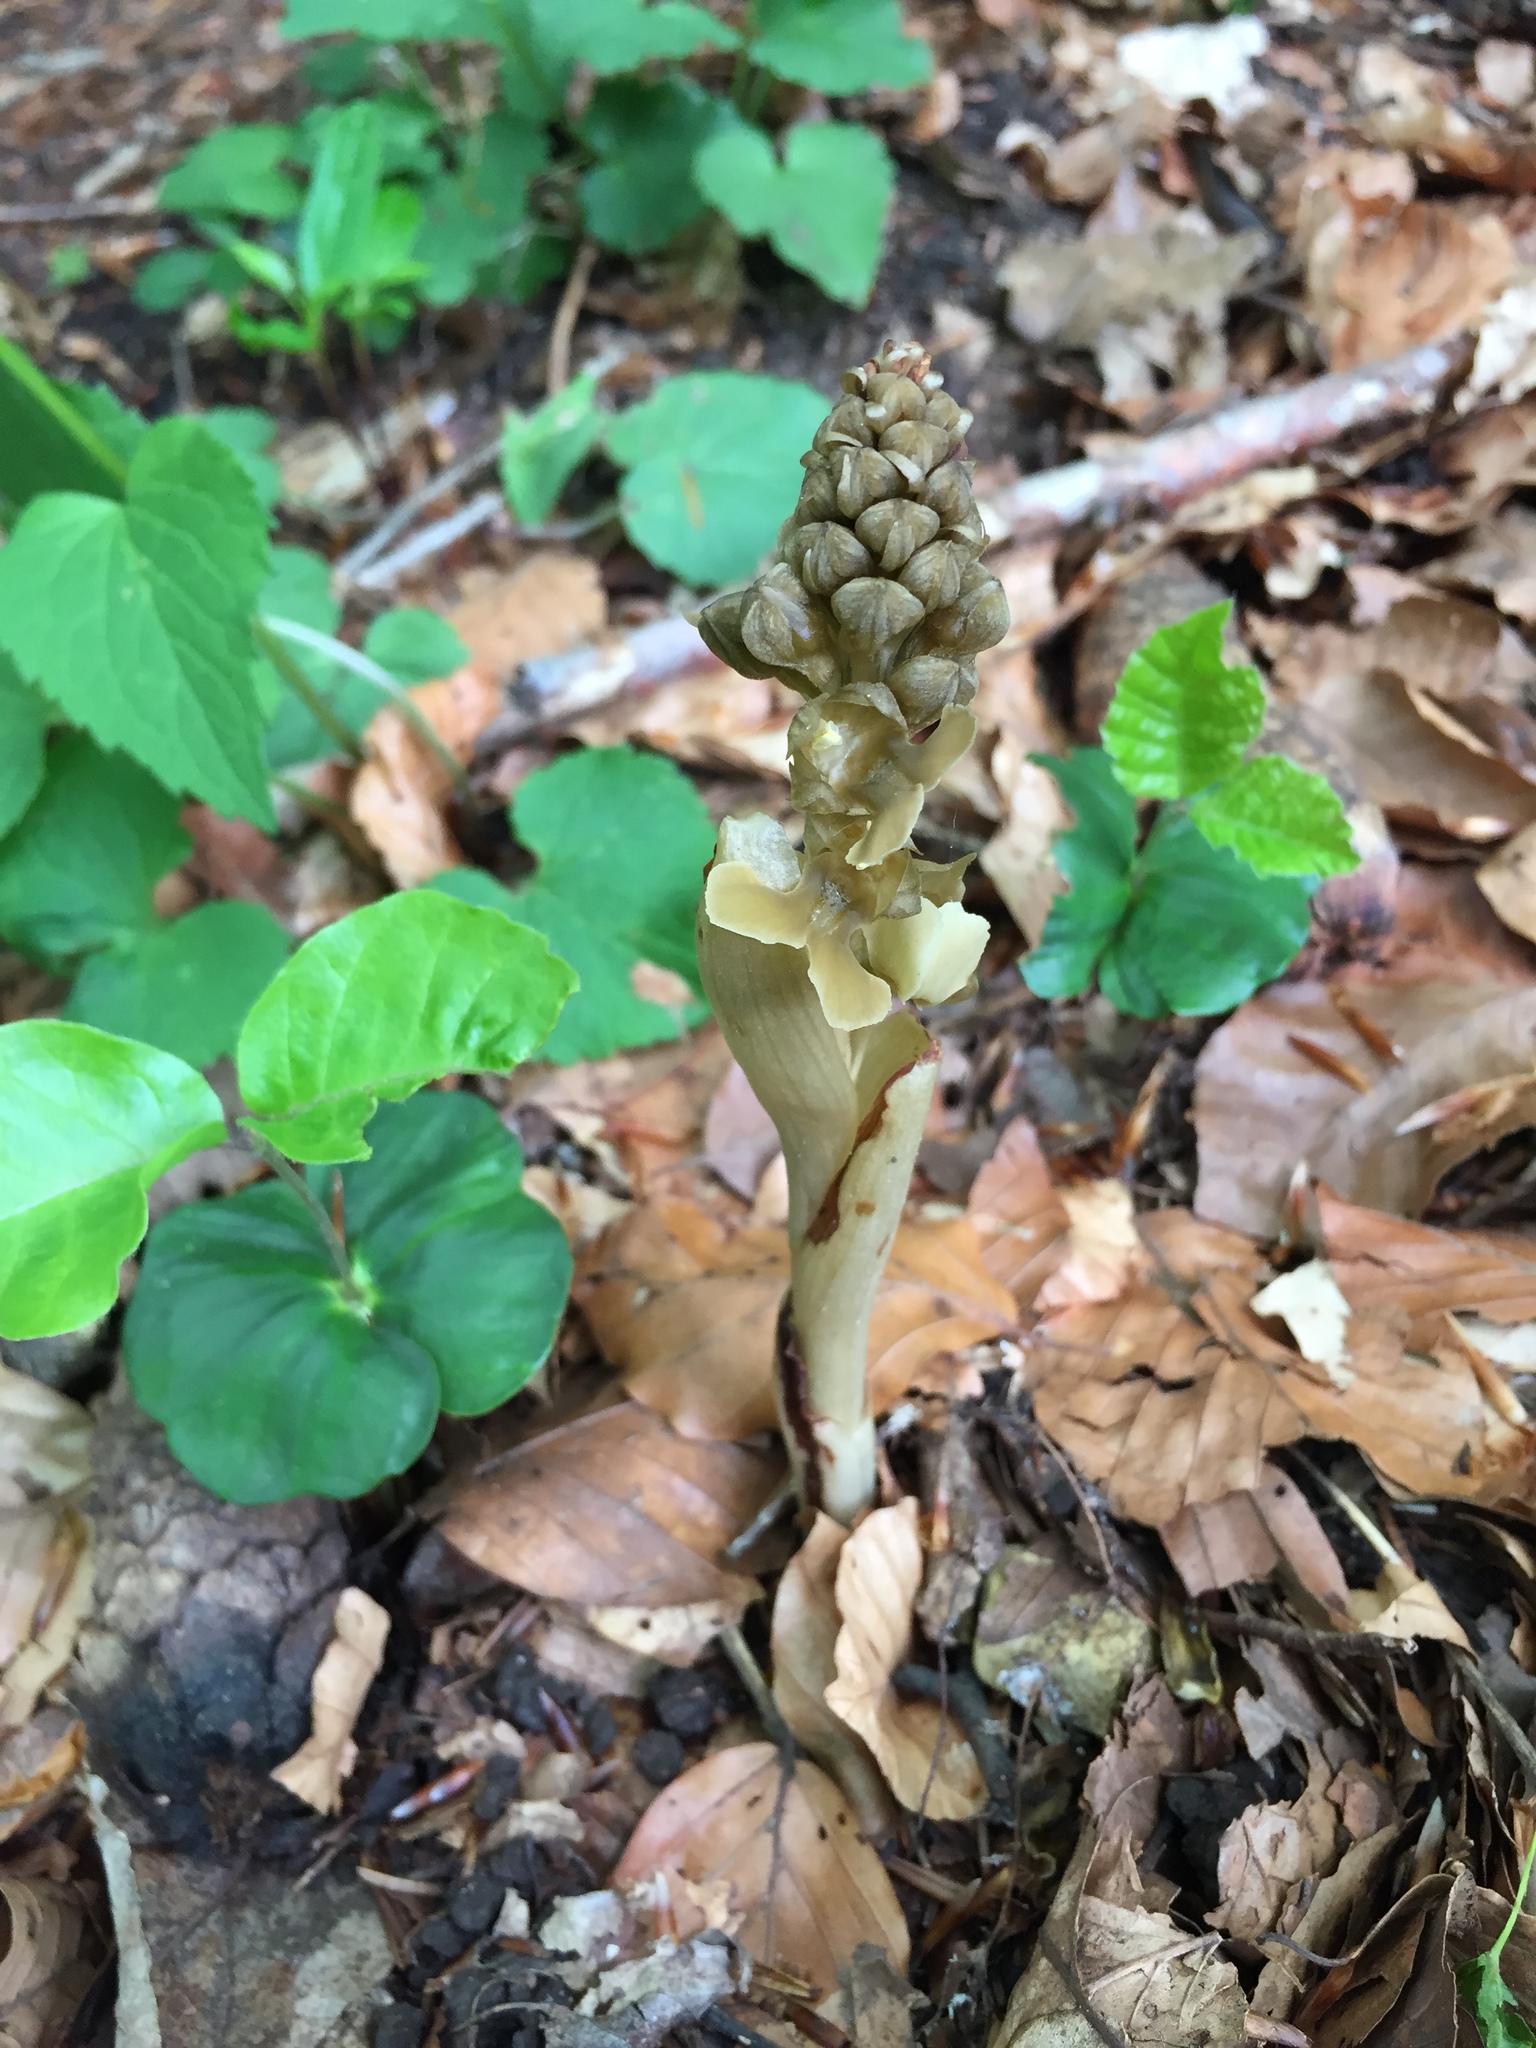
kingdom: Plantae
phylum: Tracheophyta
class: Liliopsida
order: Asparagales
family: Orchidaceae
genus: Neottia
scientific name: Neottia nidus-avis
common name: Bird's-nest orchid
